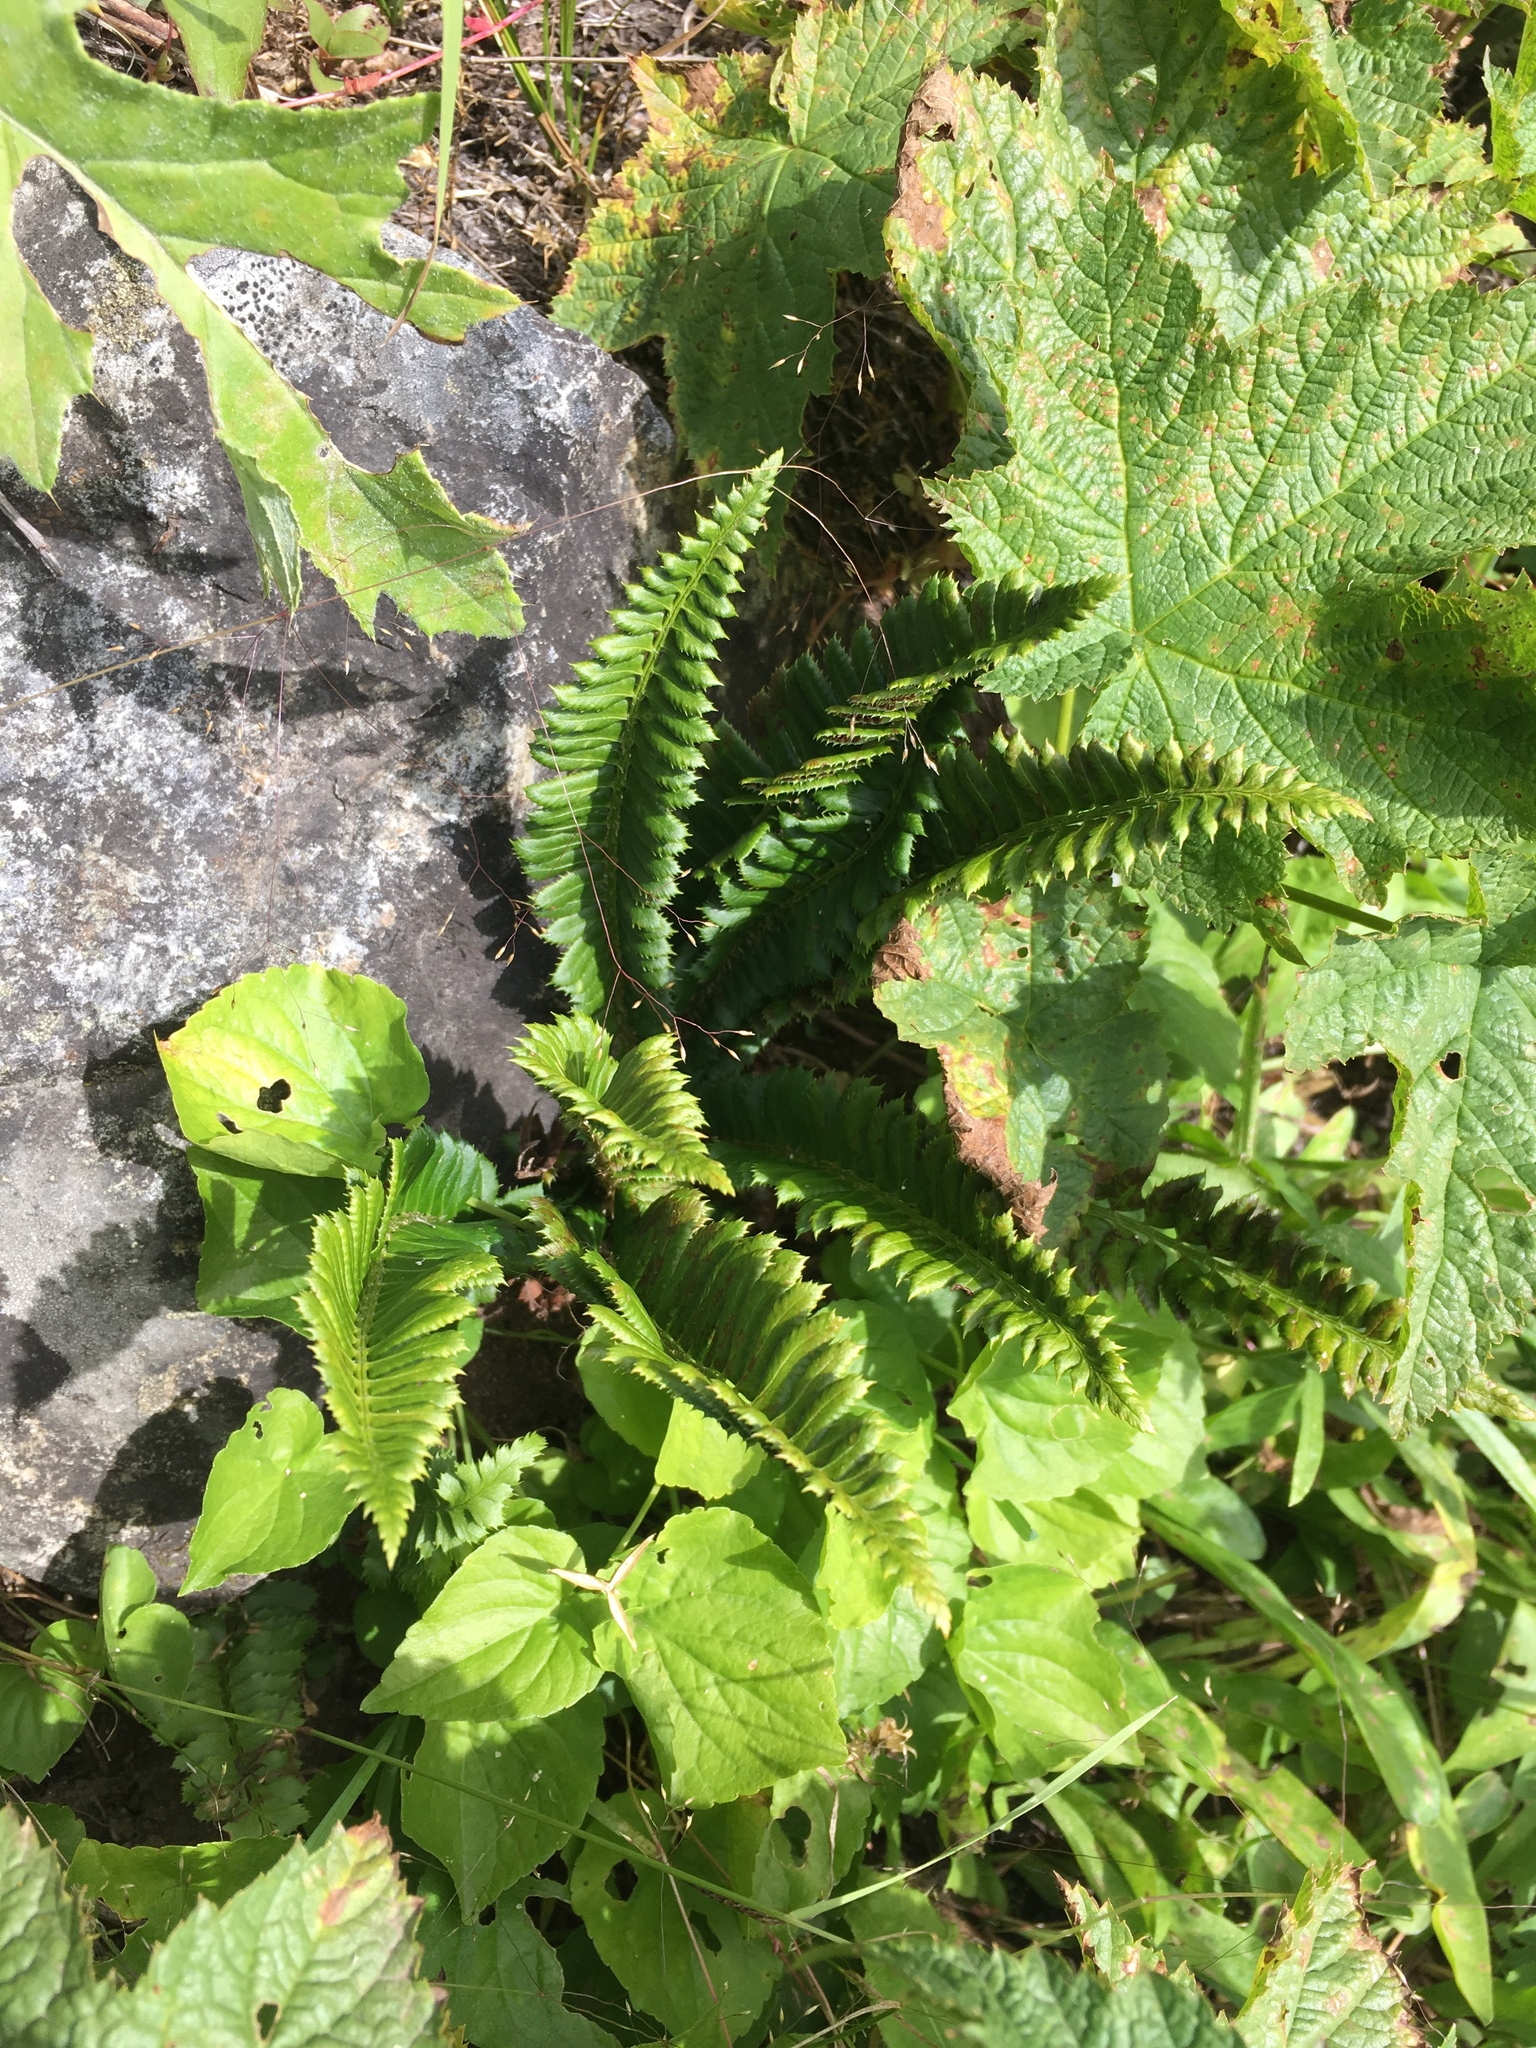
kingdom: Plantae
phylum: Tracheophyta
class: Polypodiopsida
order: Polypodiales
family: Dryopteridaceae
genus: Polystichum
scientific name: Polystichum lonchitis
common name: Holly fern
